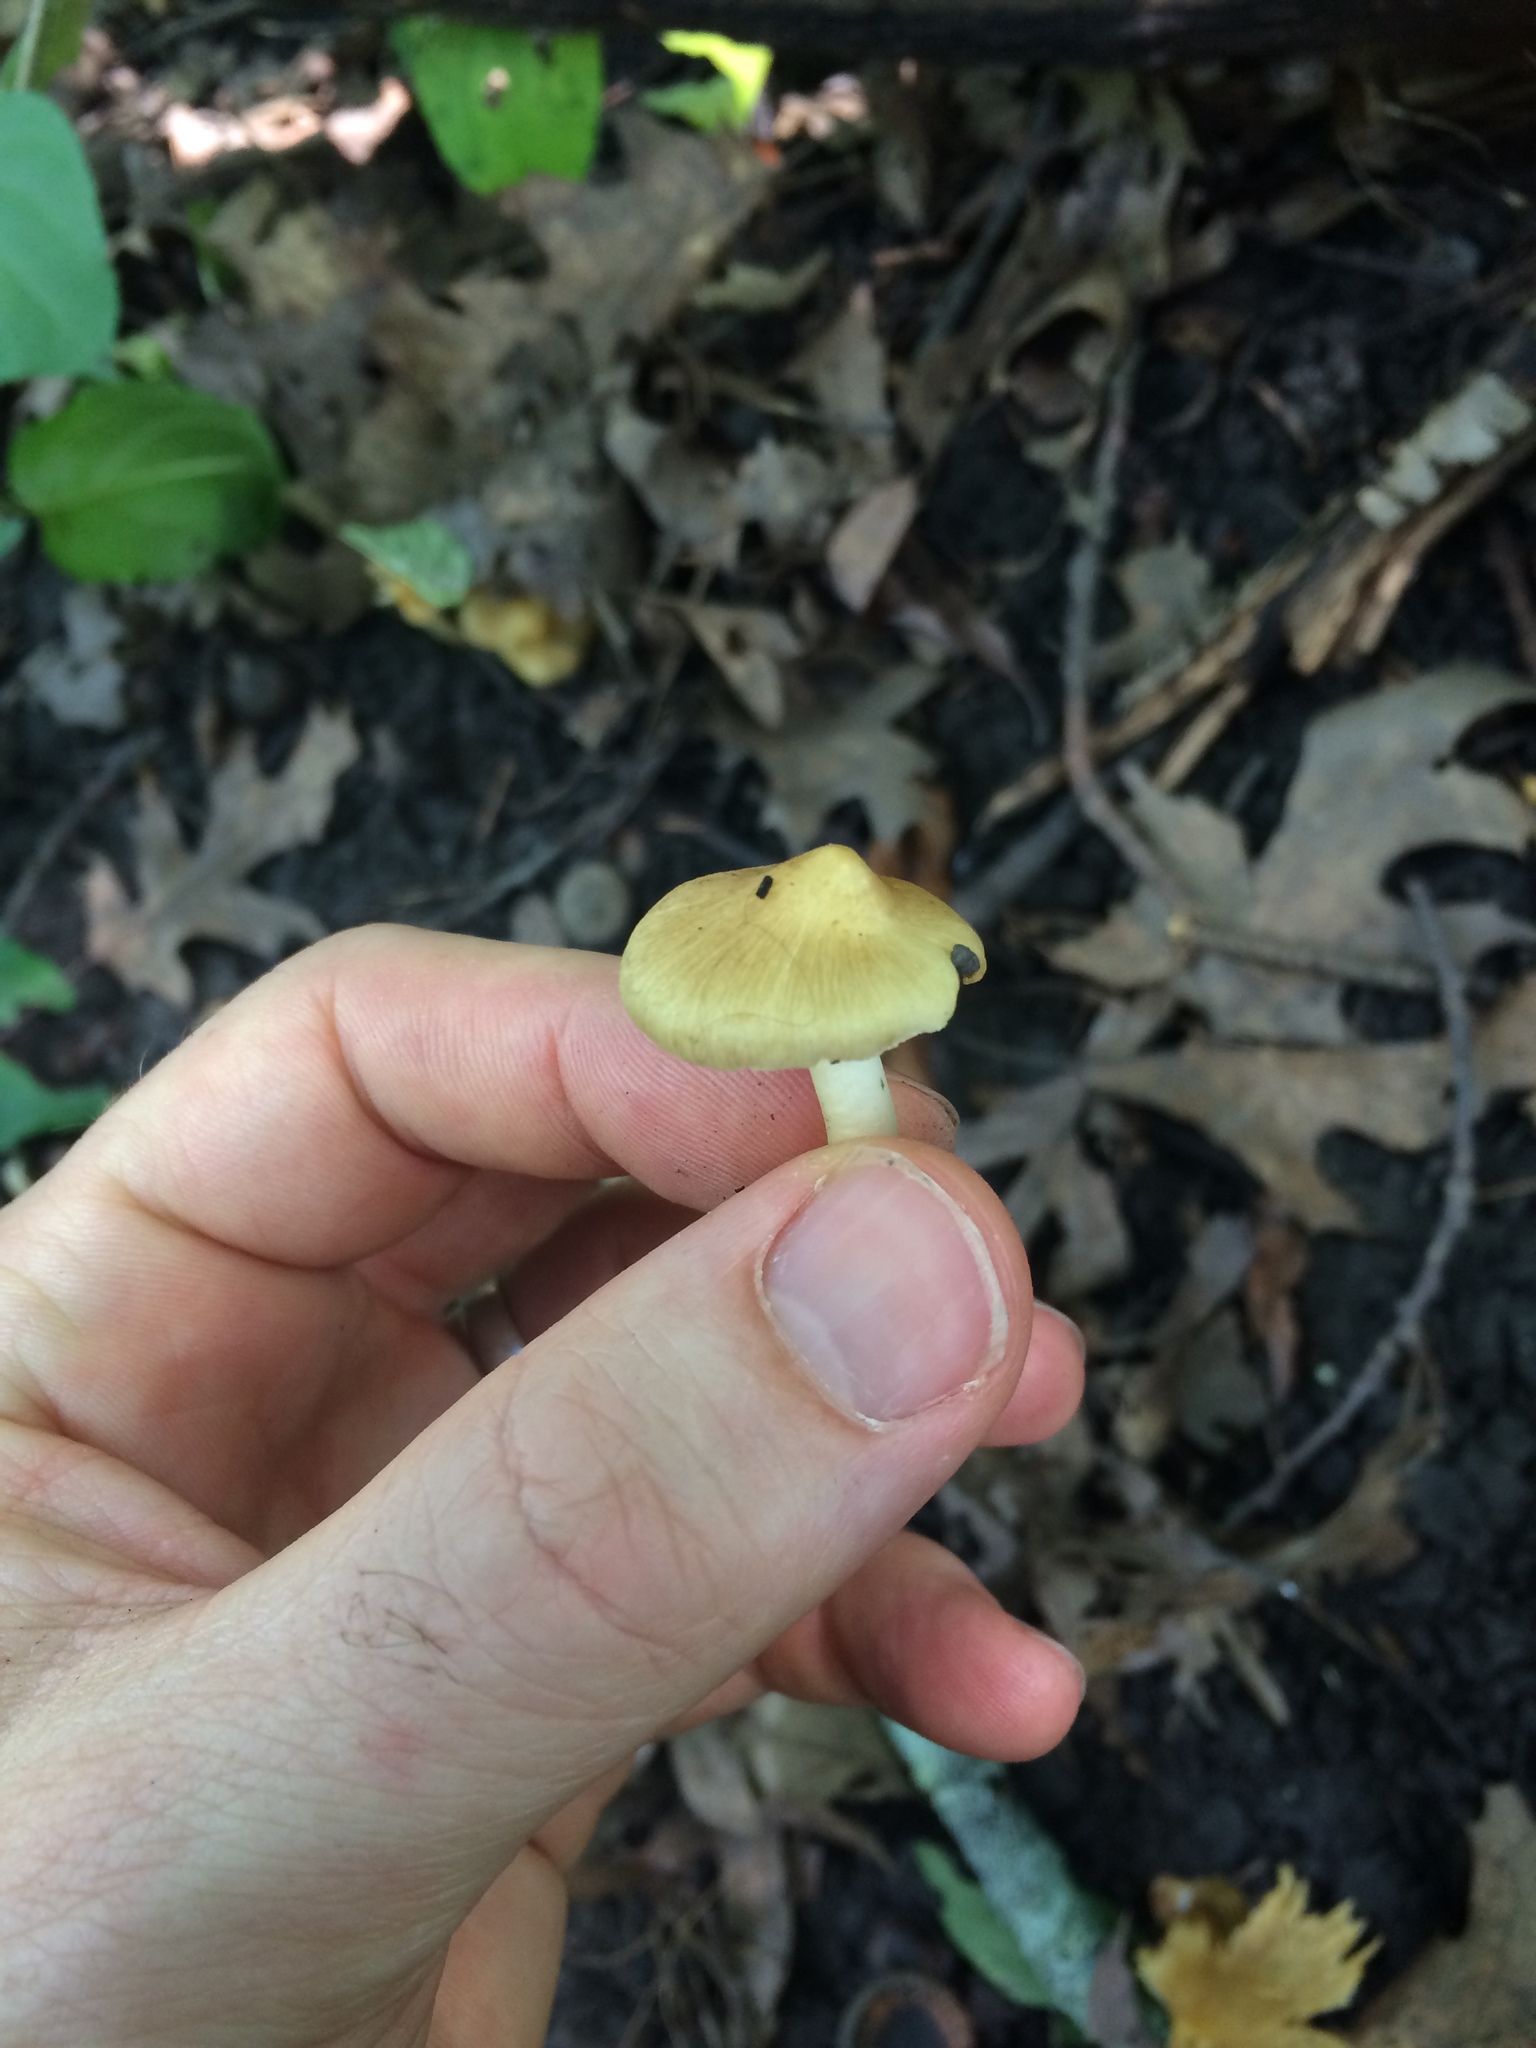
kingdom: Fungi
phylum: Basidiomycota
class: Agaricomycetes
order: Agaricales
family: Inocybaceae
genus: Pseudosperma
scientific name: Pseudosperma sororium
